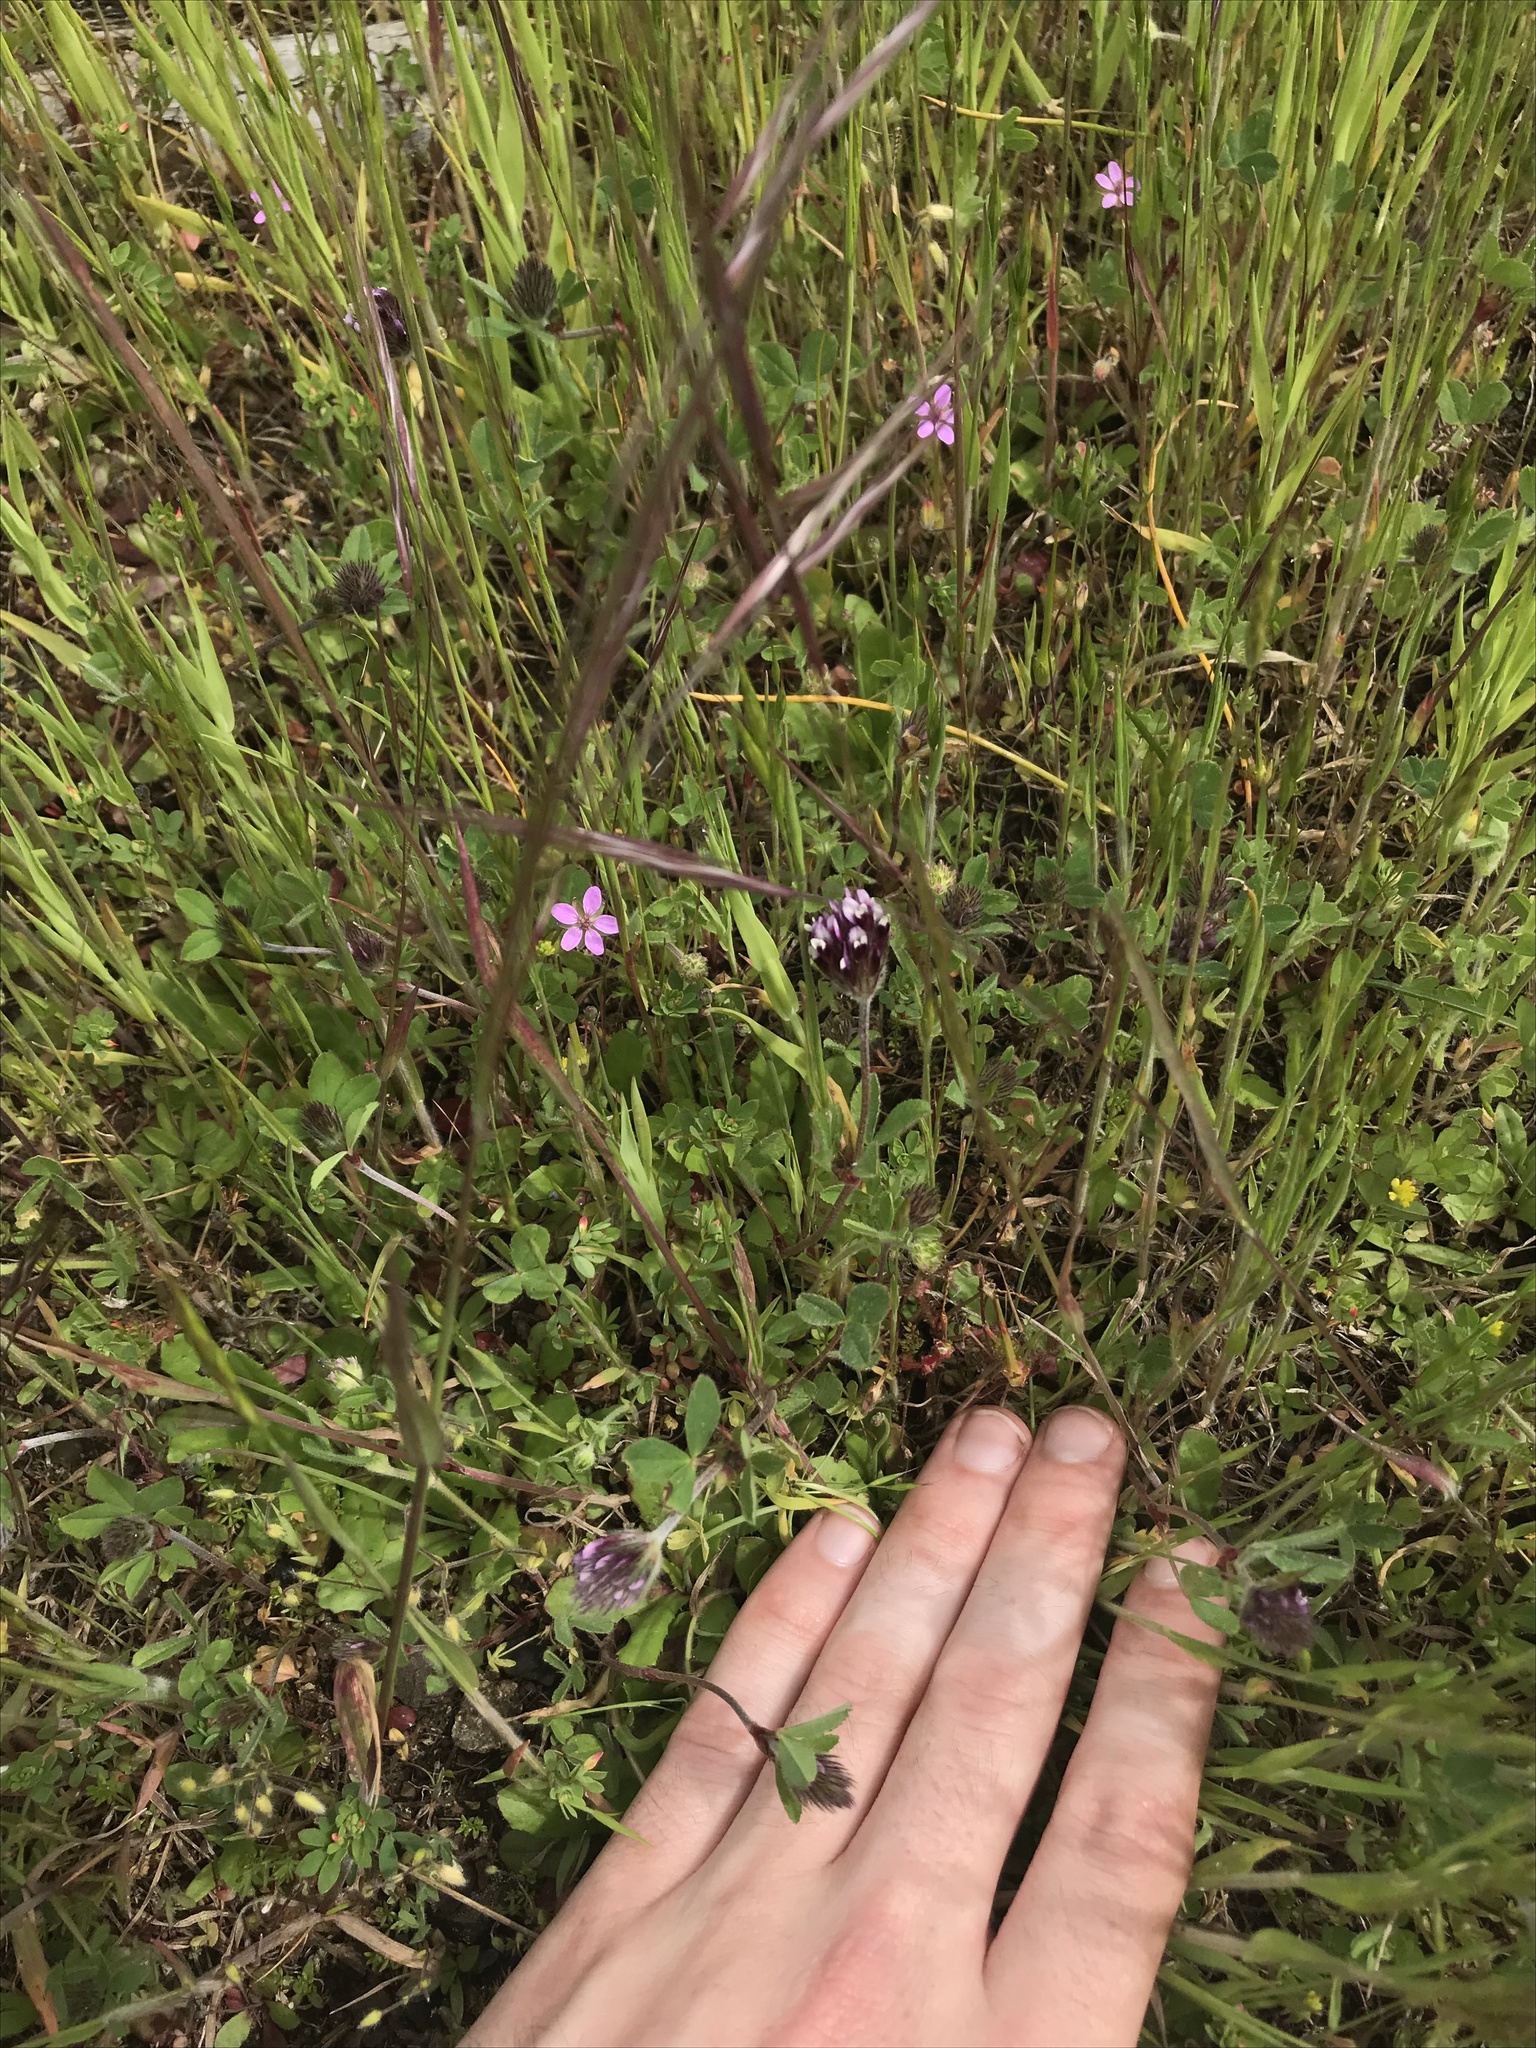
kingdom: Plantae
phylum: Tracheophyta
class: Magnoliopsida
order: Fabales
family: Fabaceae
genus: Trifolium
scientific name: Trifolium dichotomum
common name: Branched indian clover
